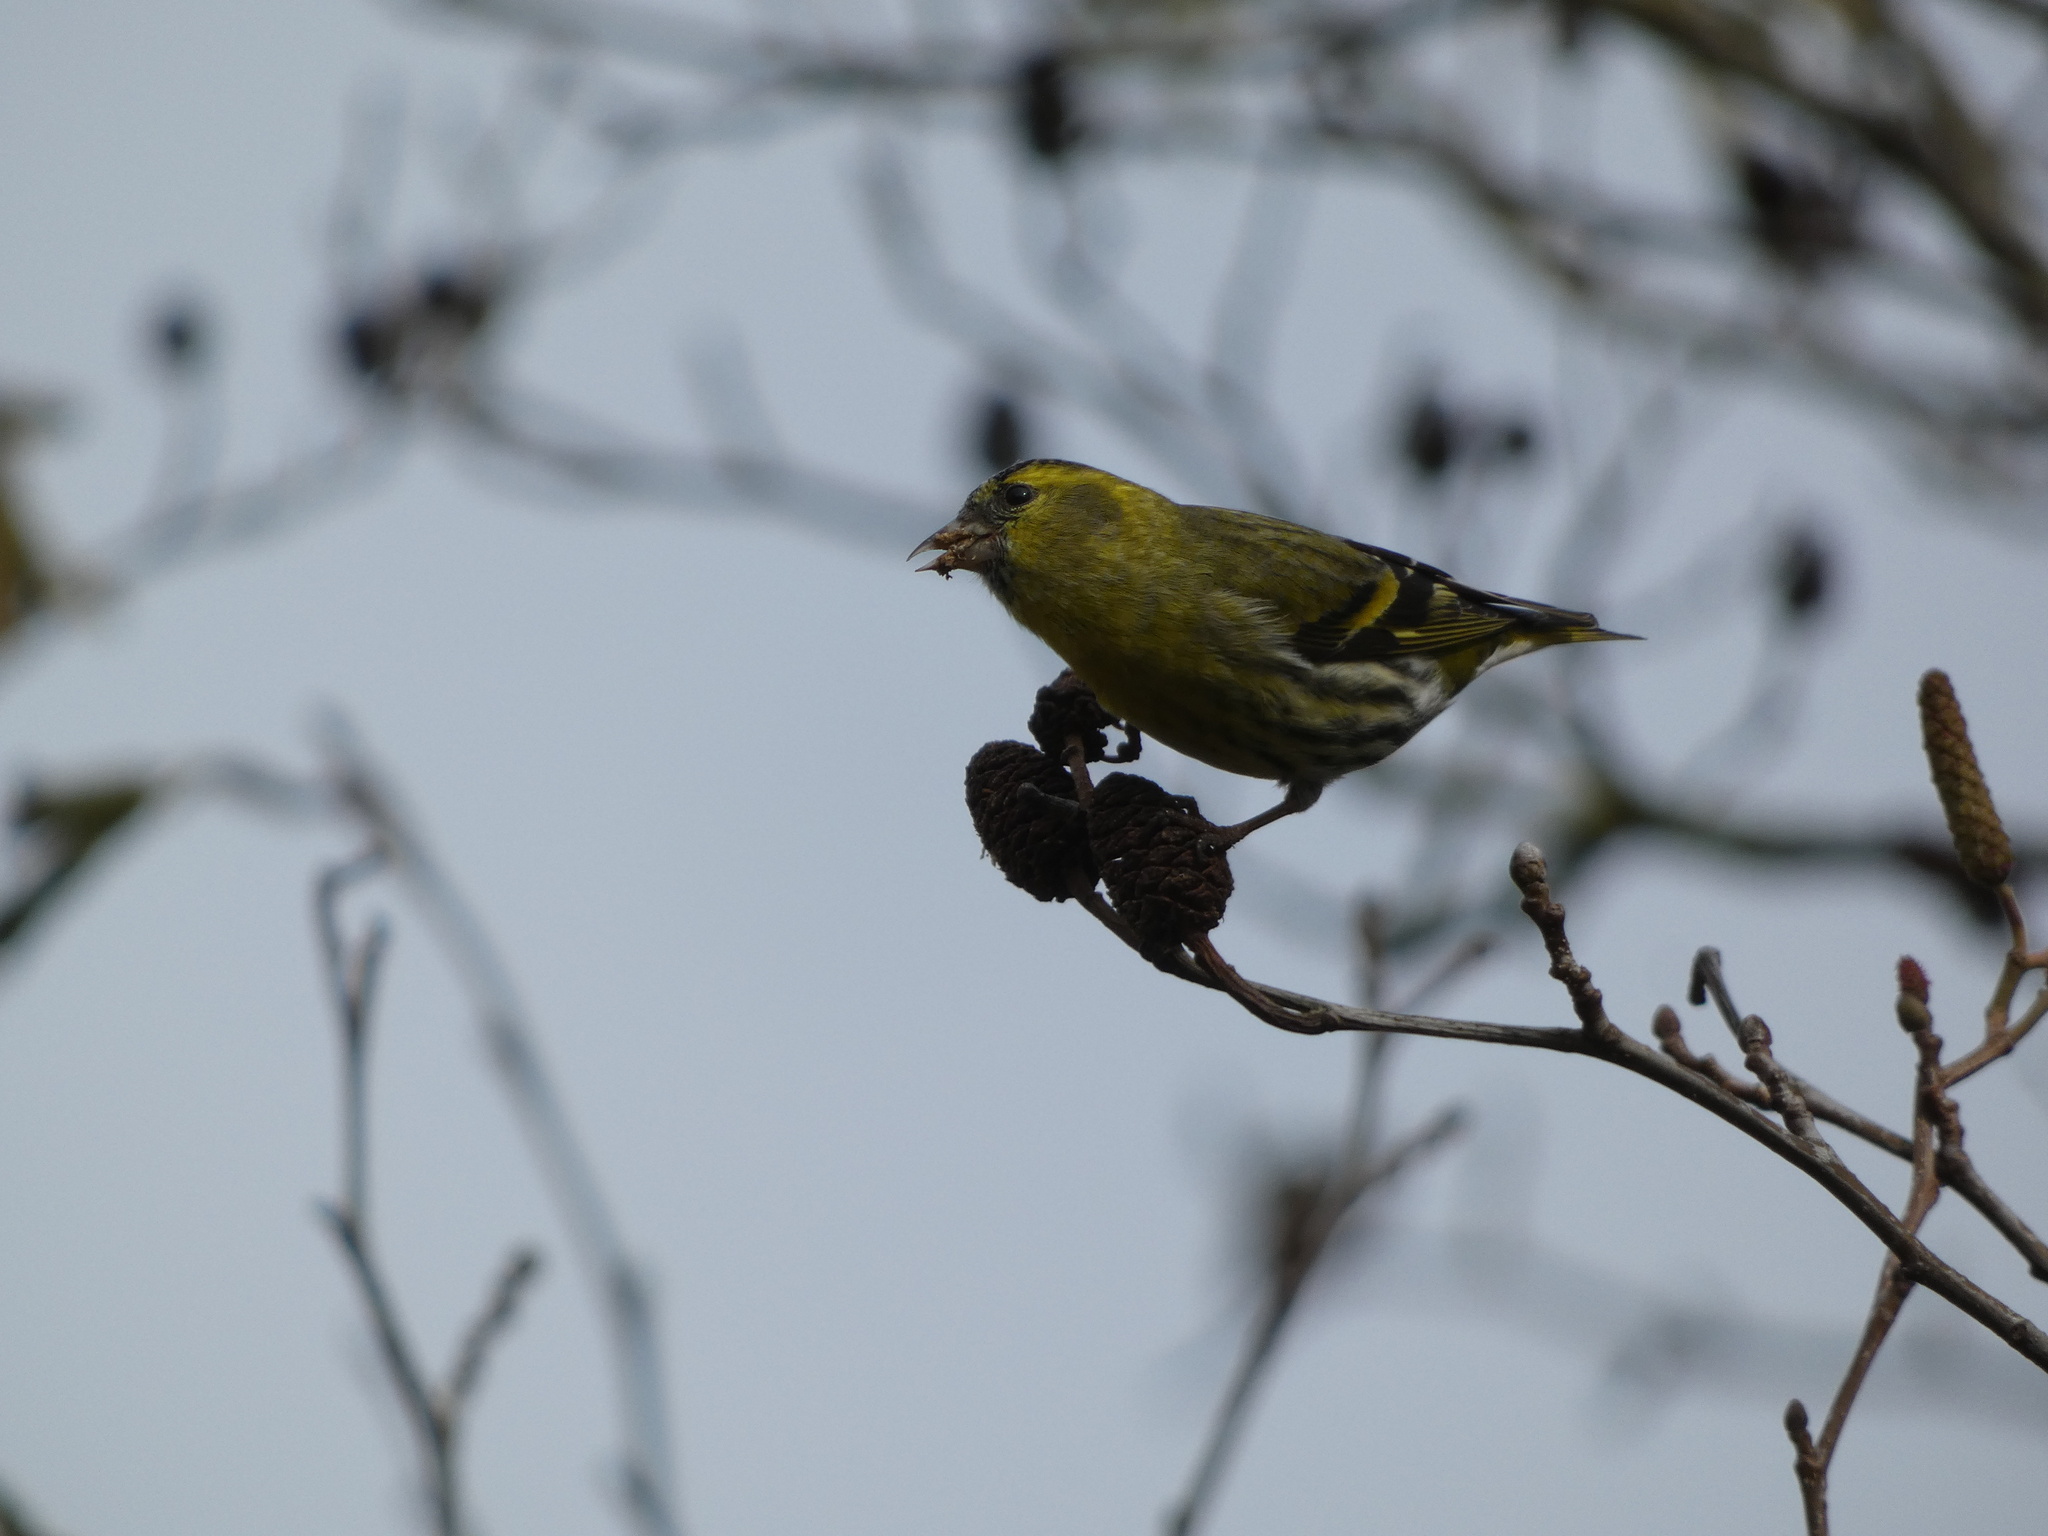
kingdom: Animalia
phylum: Chordata
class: Aves
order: Passeriformes
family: Fringillidae
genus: Spinus
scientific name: Spinus spinus
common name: Eurasian siskin
